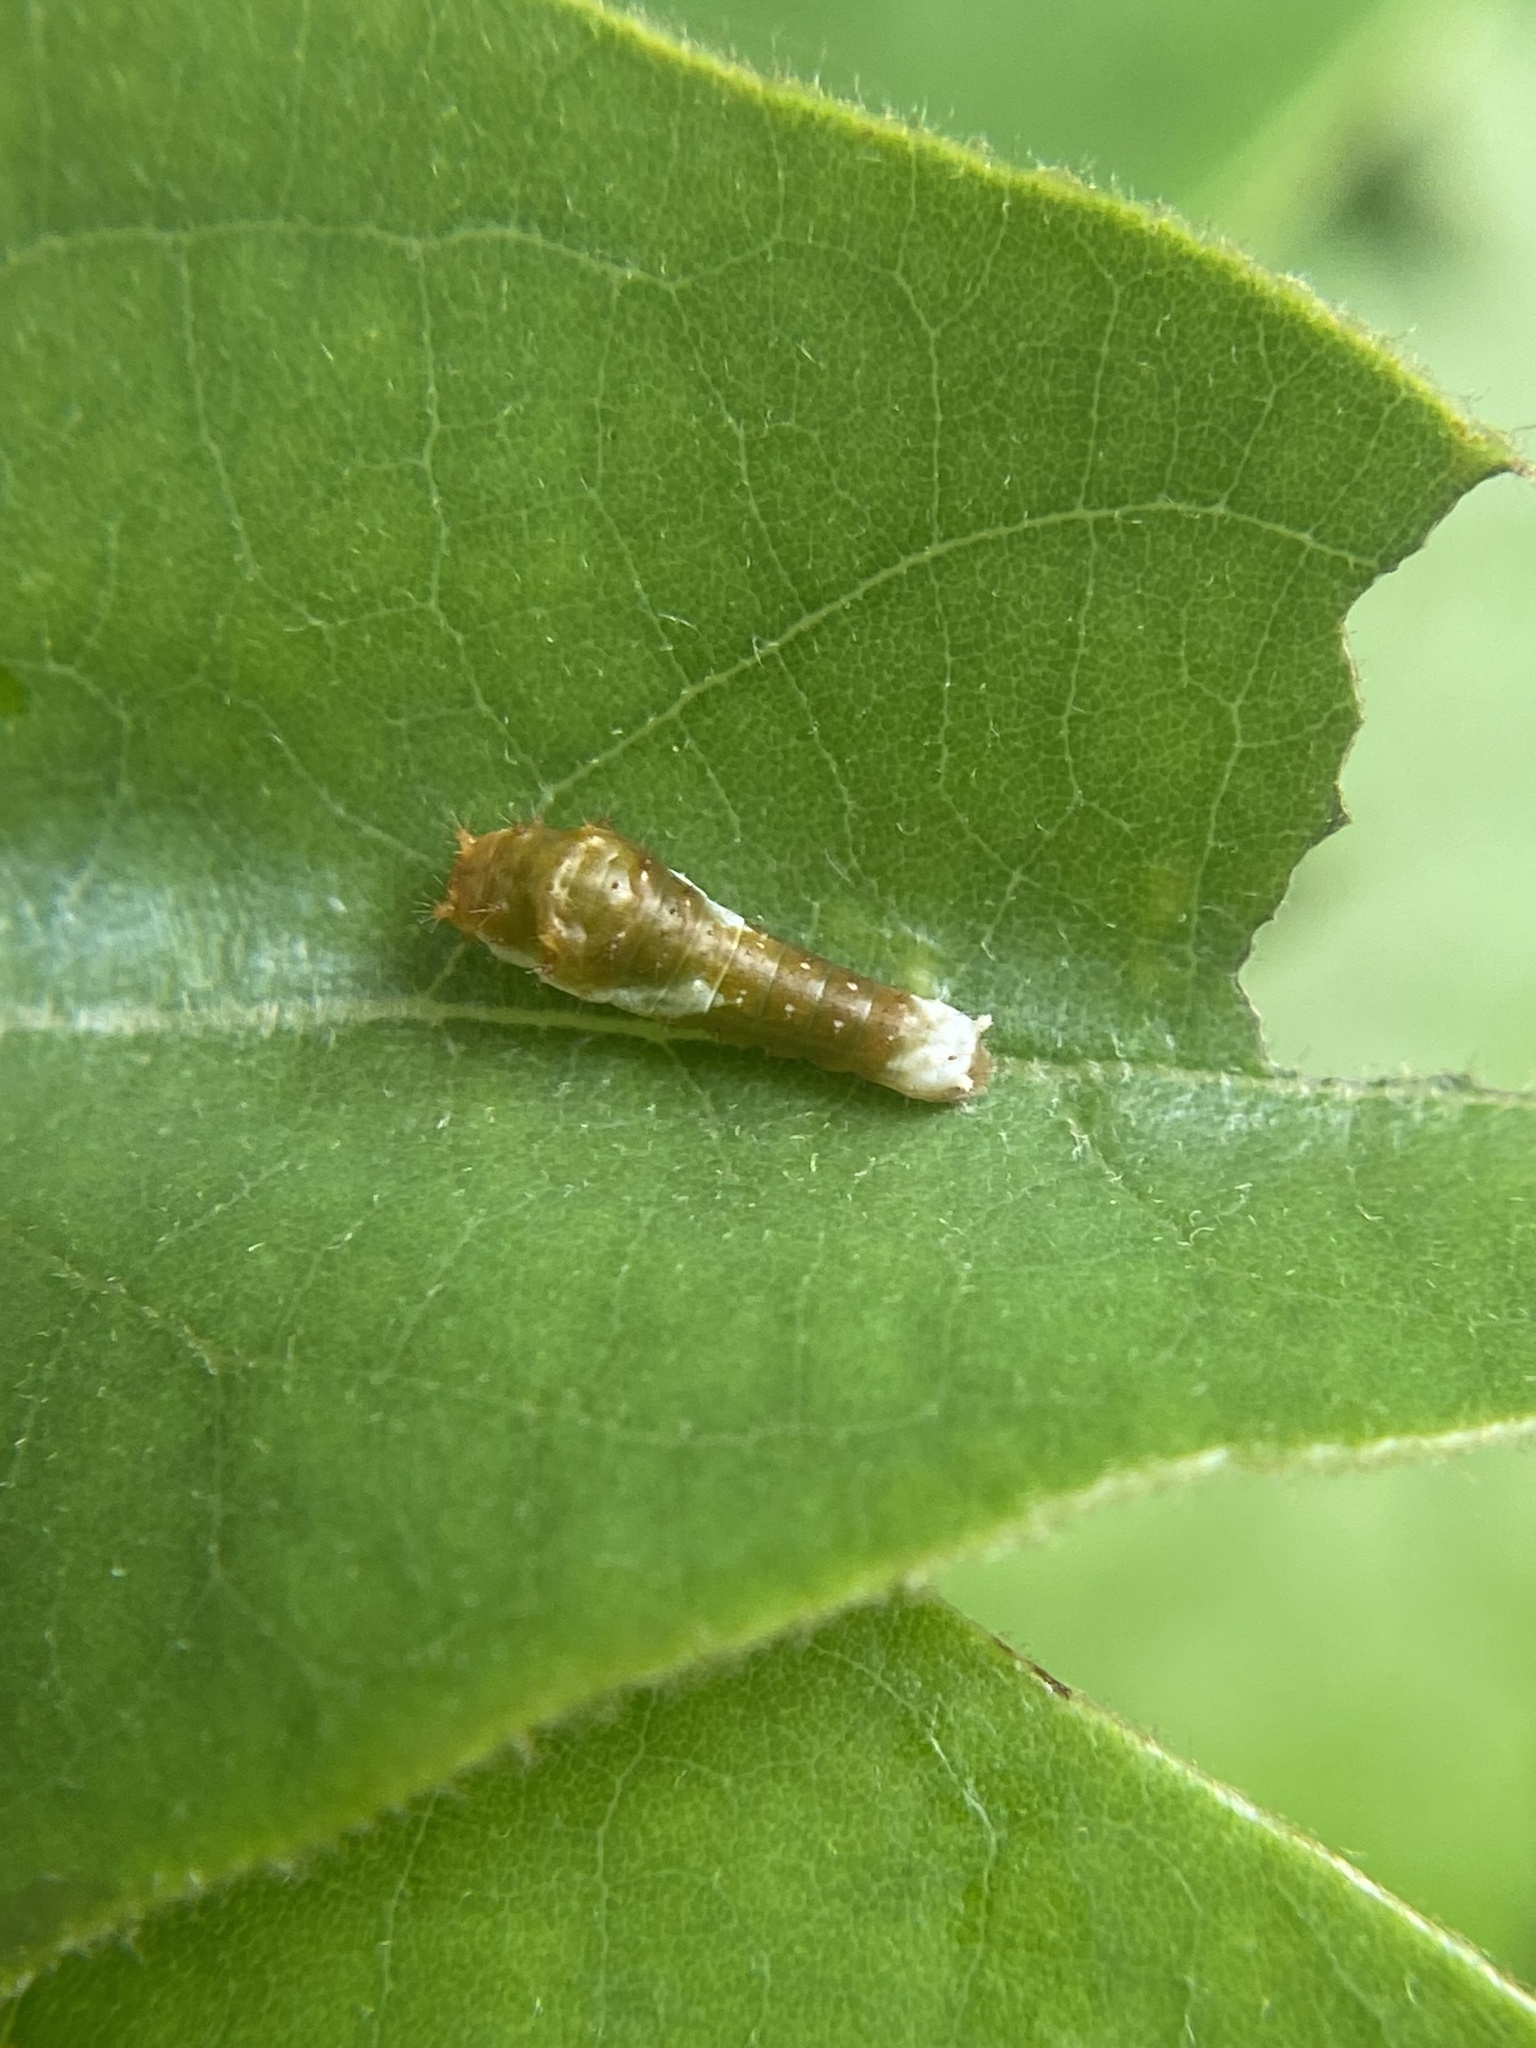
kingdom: Animalia
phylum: Arthropoda
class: Insecta
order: Lepidoptera
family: Papilionidae
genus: Papilio
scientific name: Papilio palamedes
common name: Palamedes swallowtail
